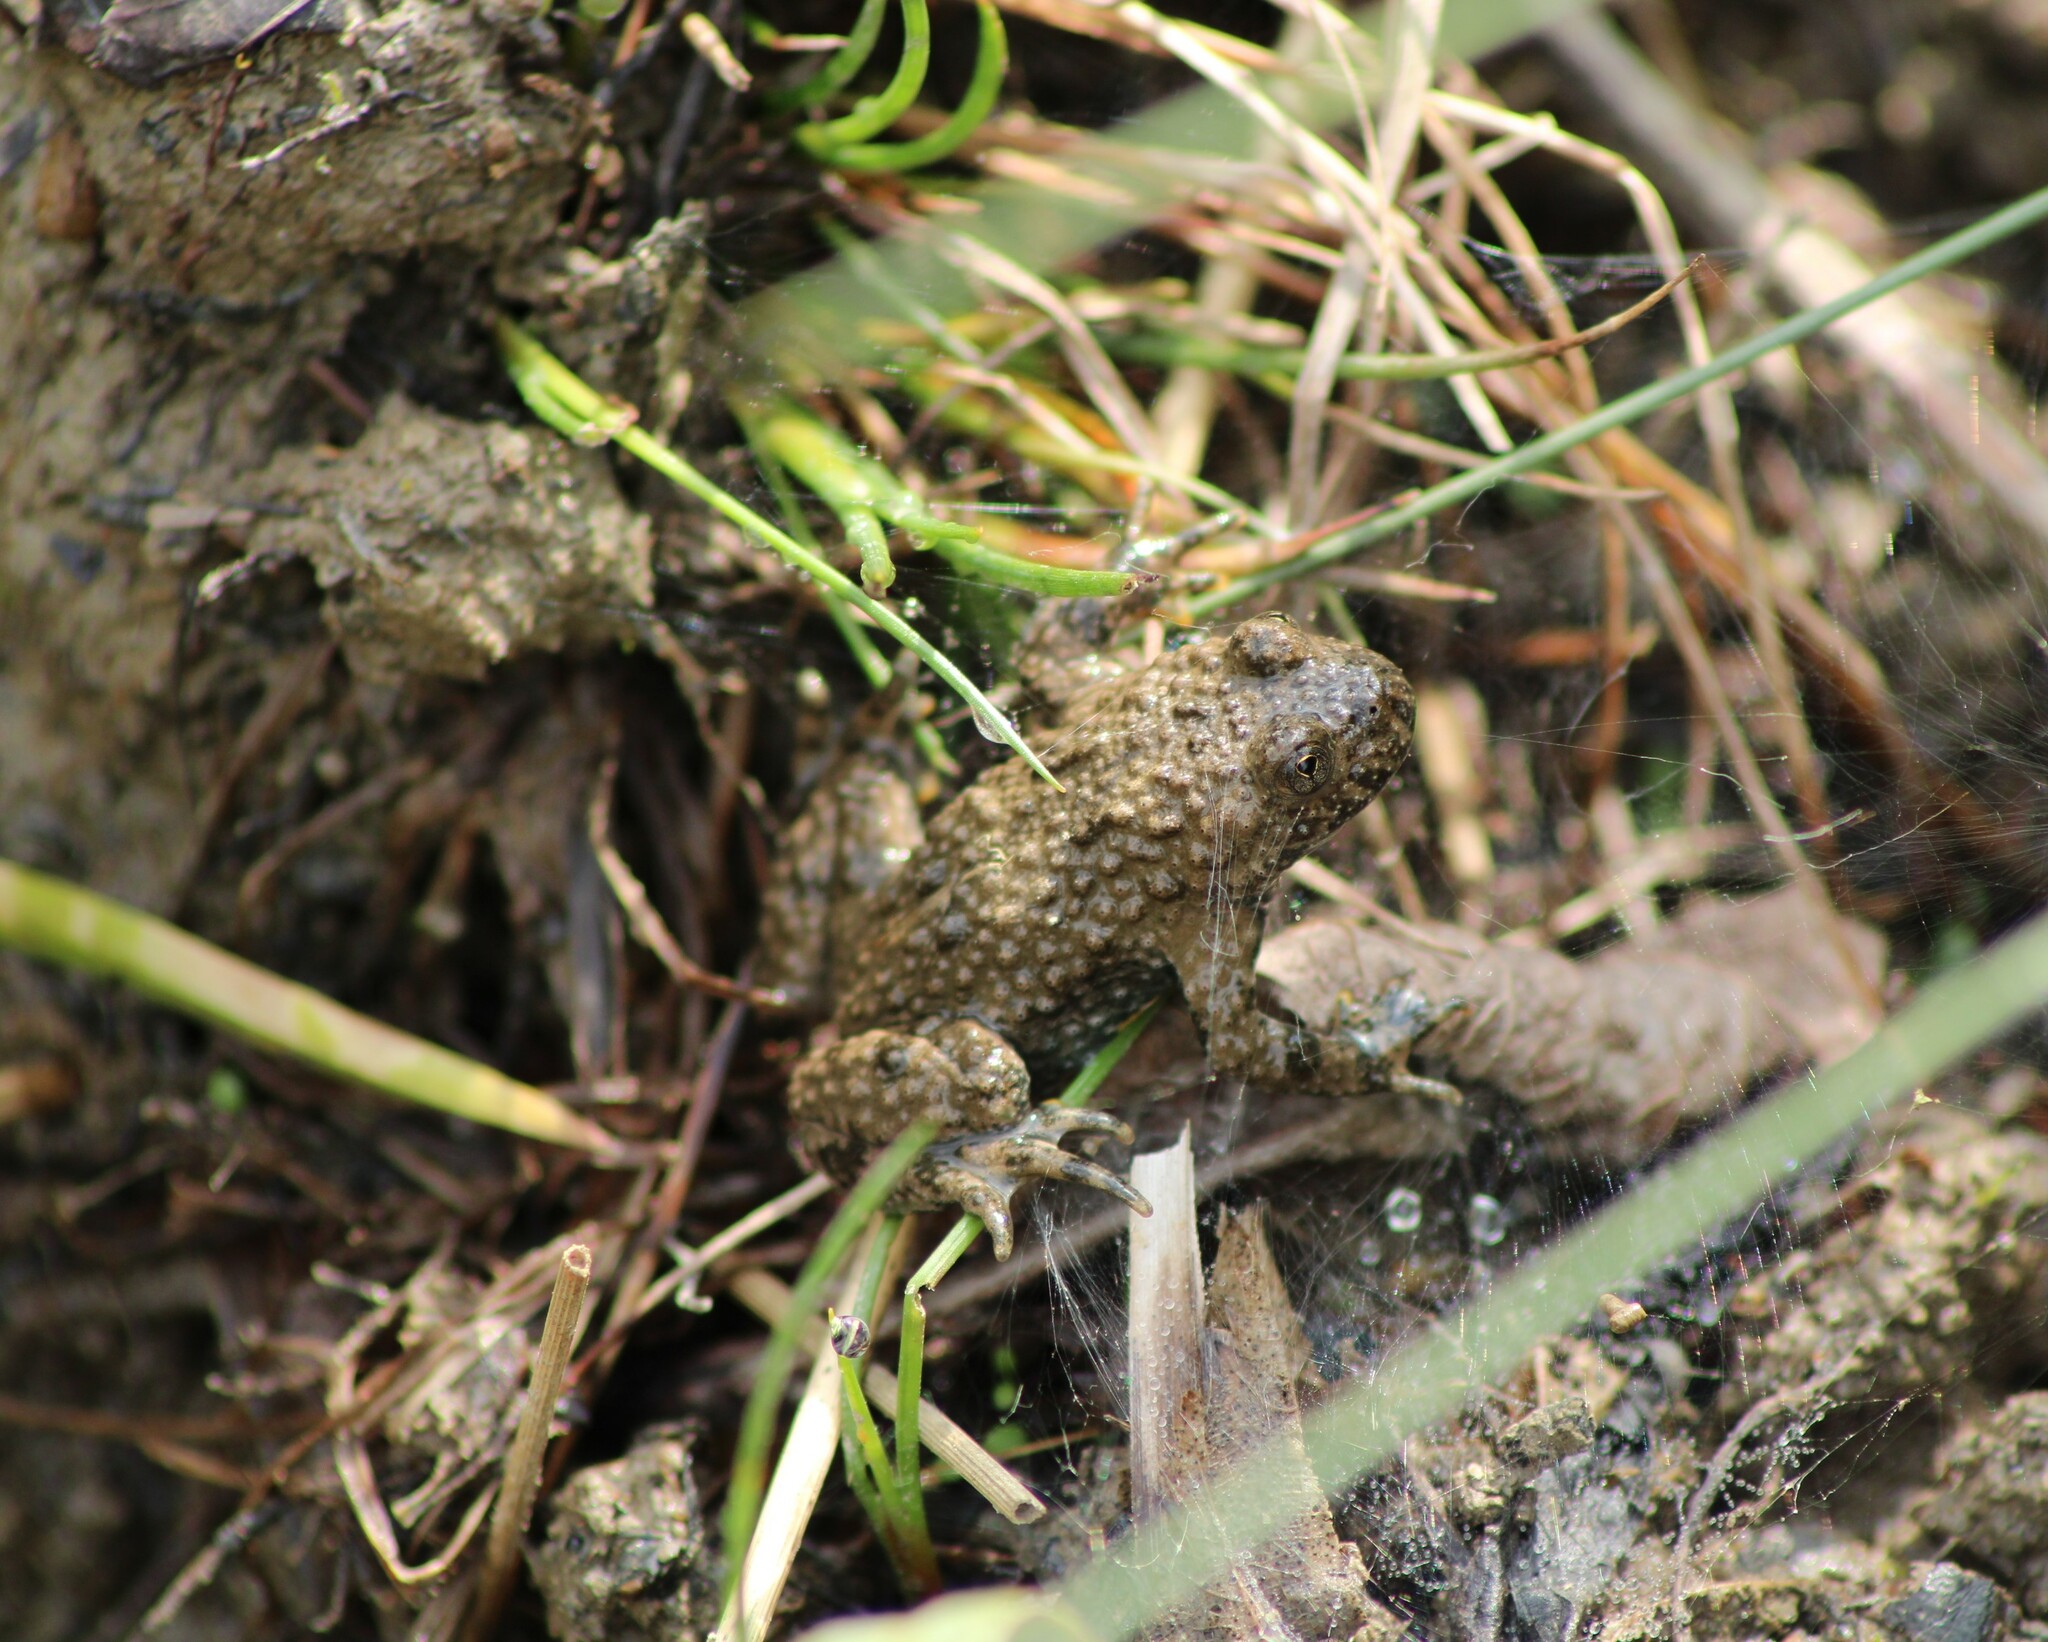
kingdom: Animalia
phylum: Chordata
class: Amphibia
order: Anura
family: Bombinatoridae
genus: Bombina
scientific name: Bombina variegata
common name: Yellow-bellied toad
